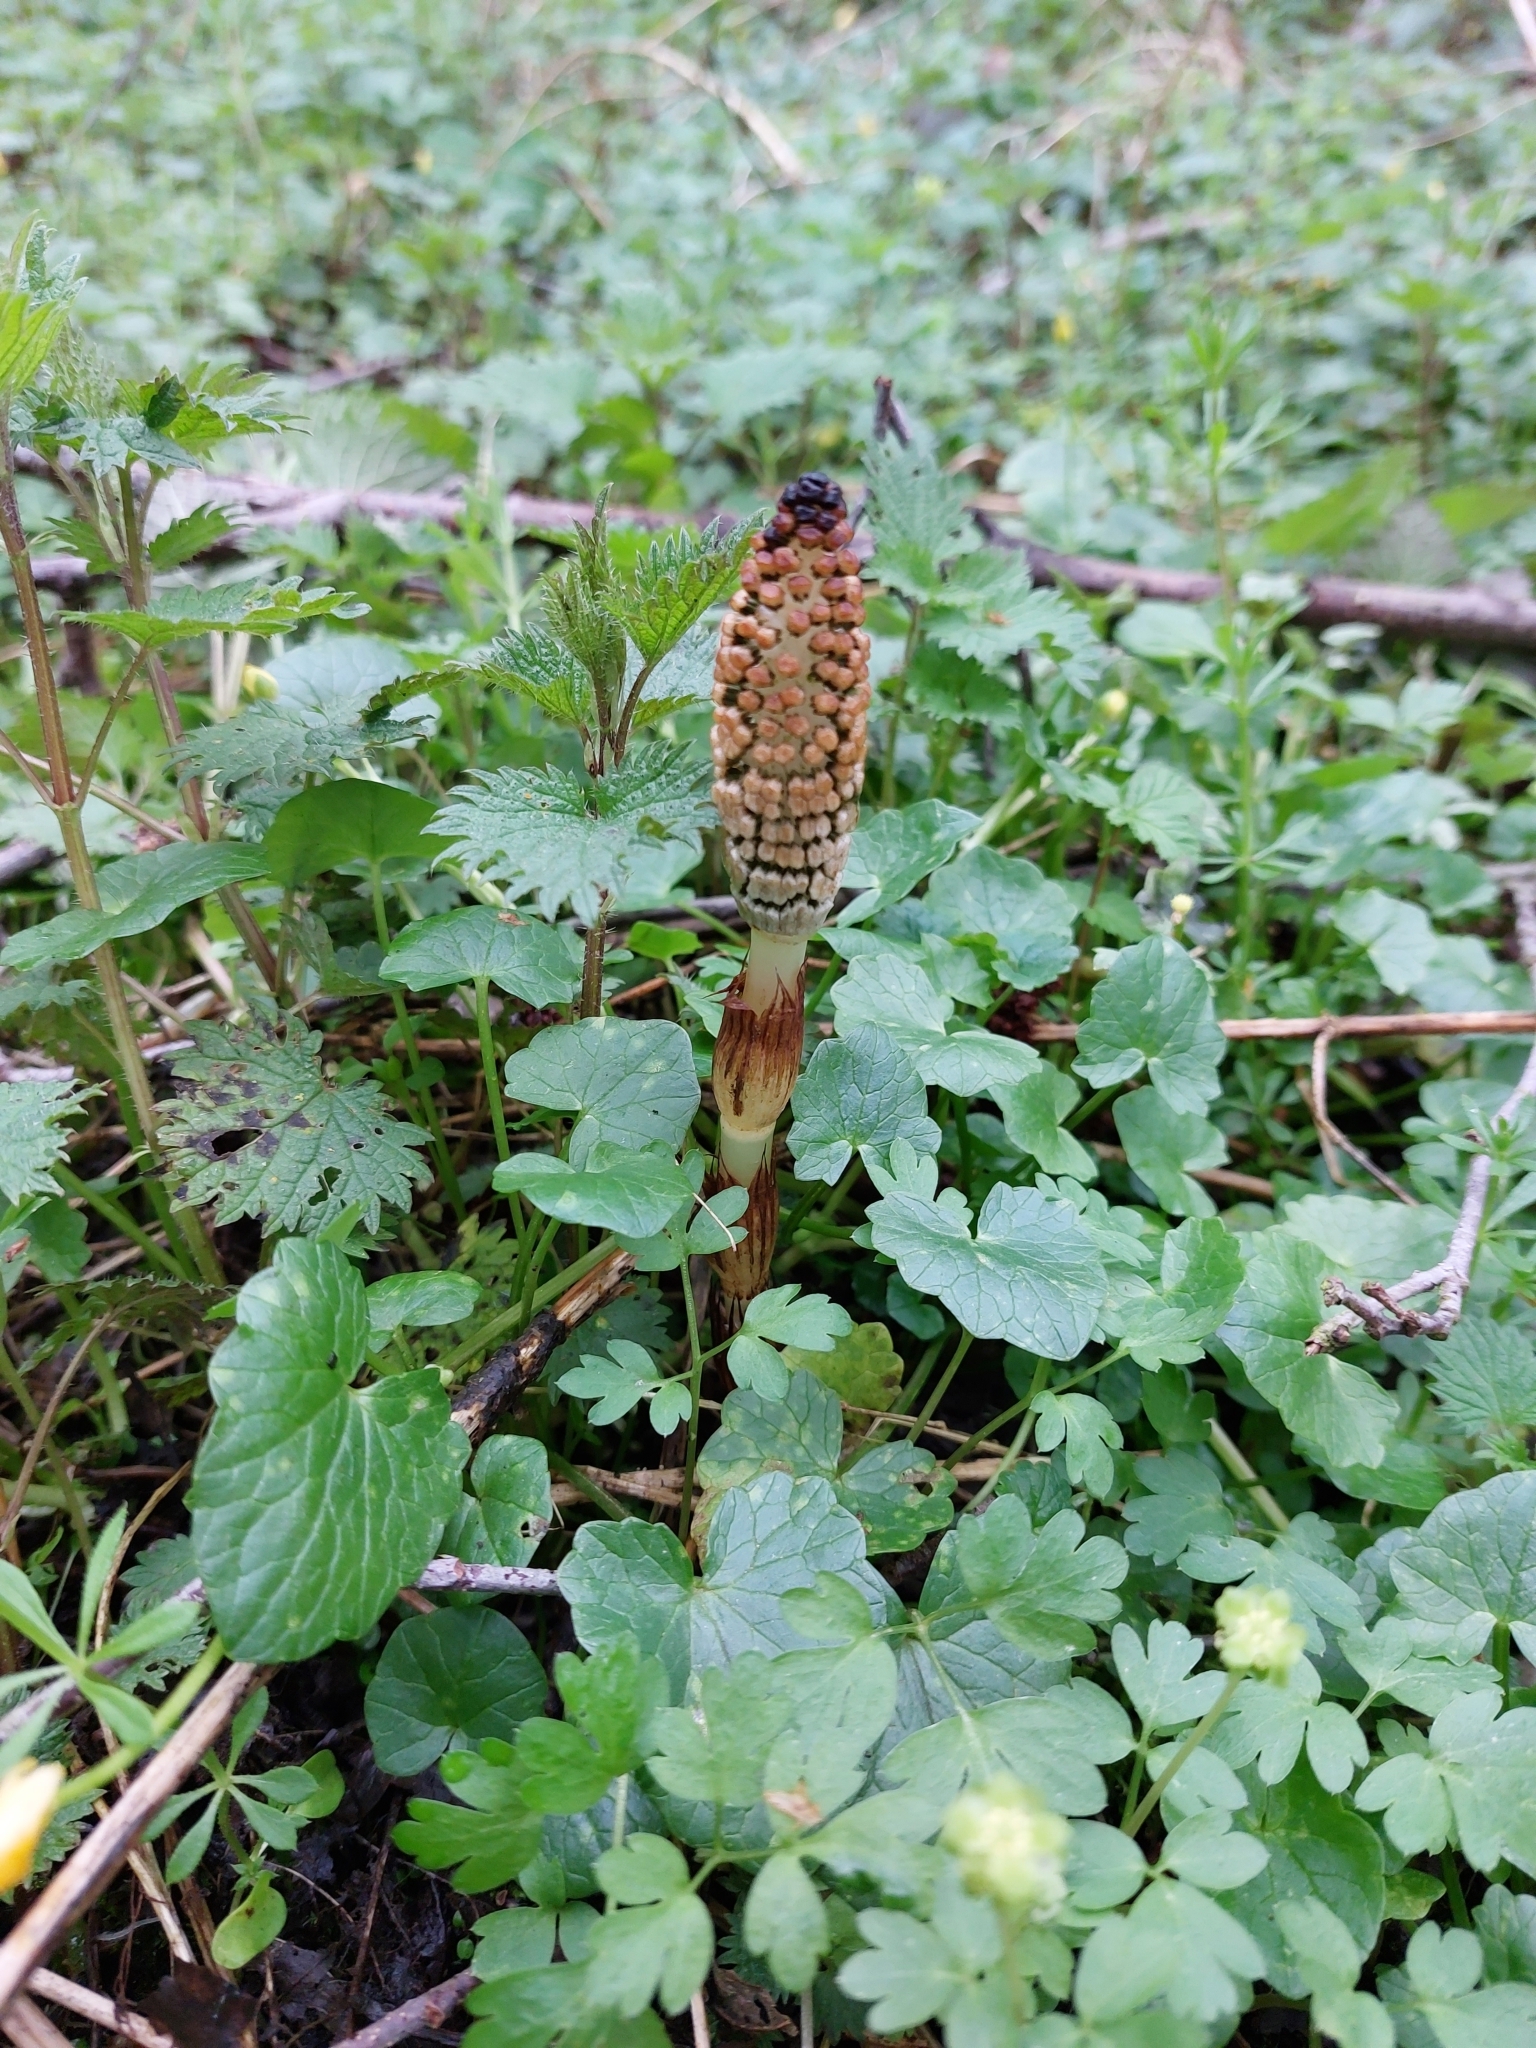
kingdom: Plantae
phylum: Tracheophyta
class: Polypodiopsida
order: Equisetales
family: Equisetaceae
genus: Equisetum
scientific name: Equisetum telmateia
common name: Great horsetail
